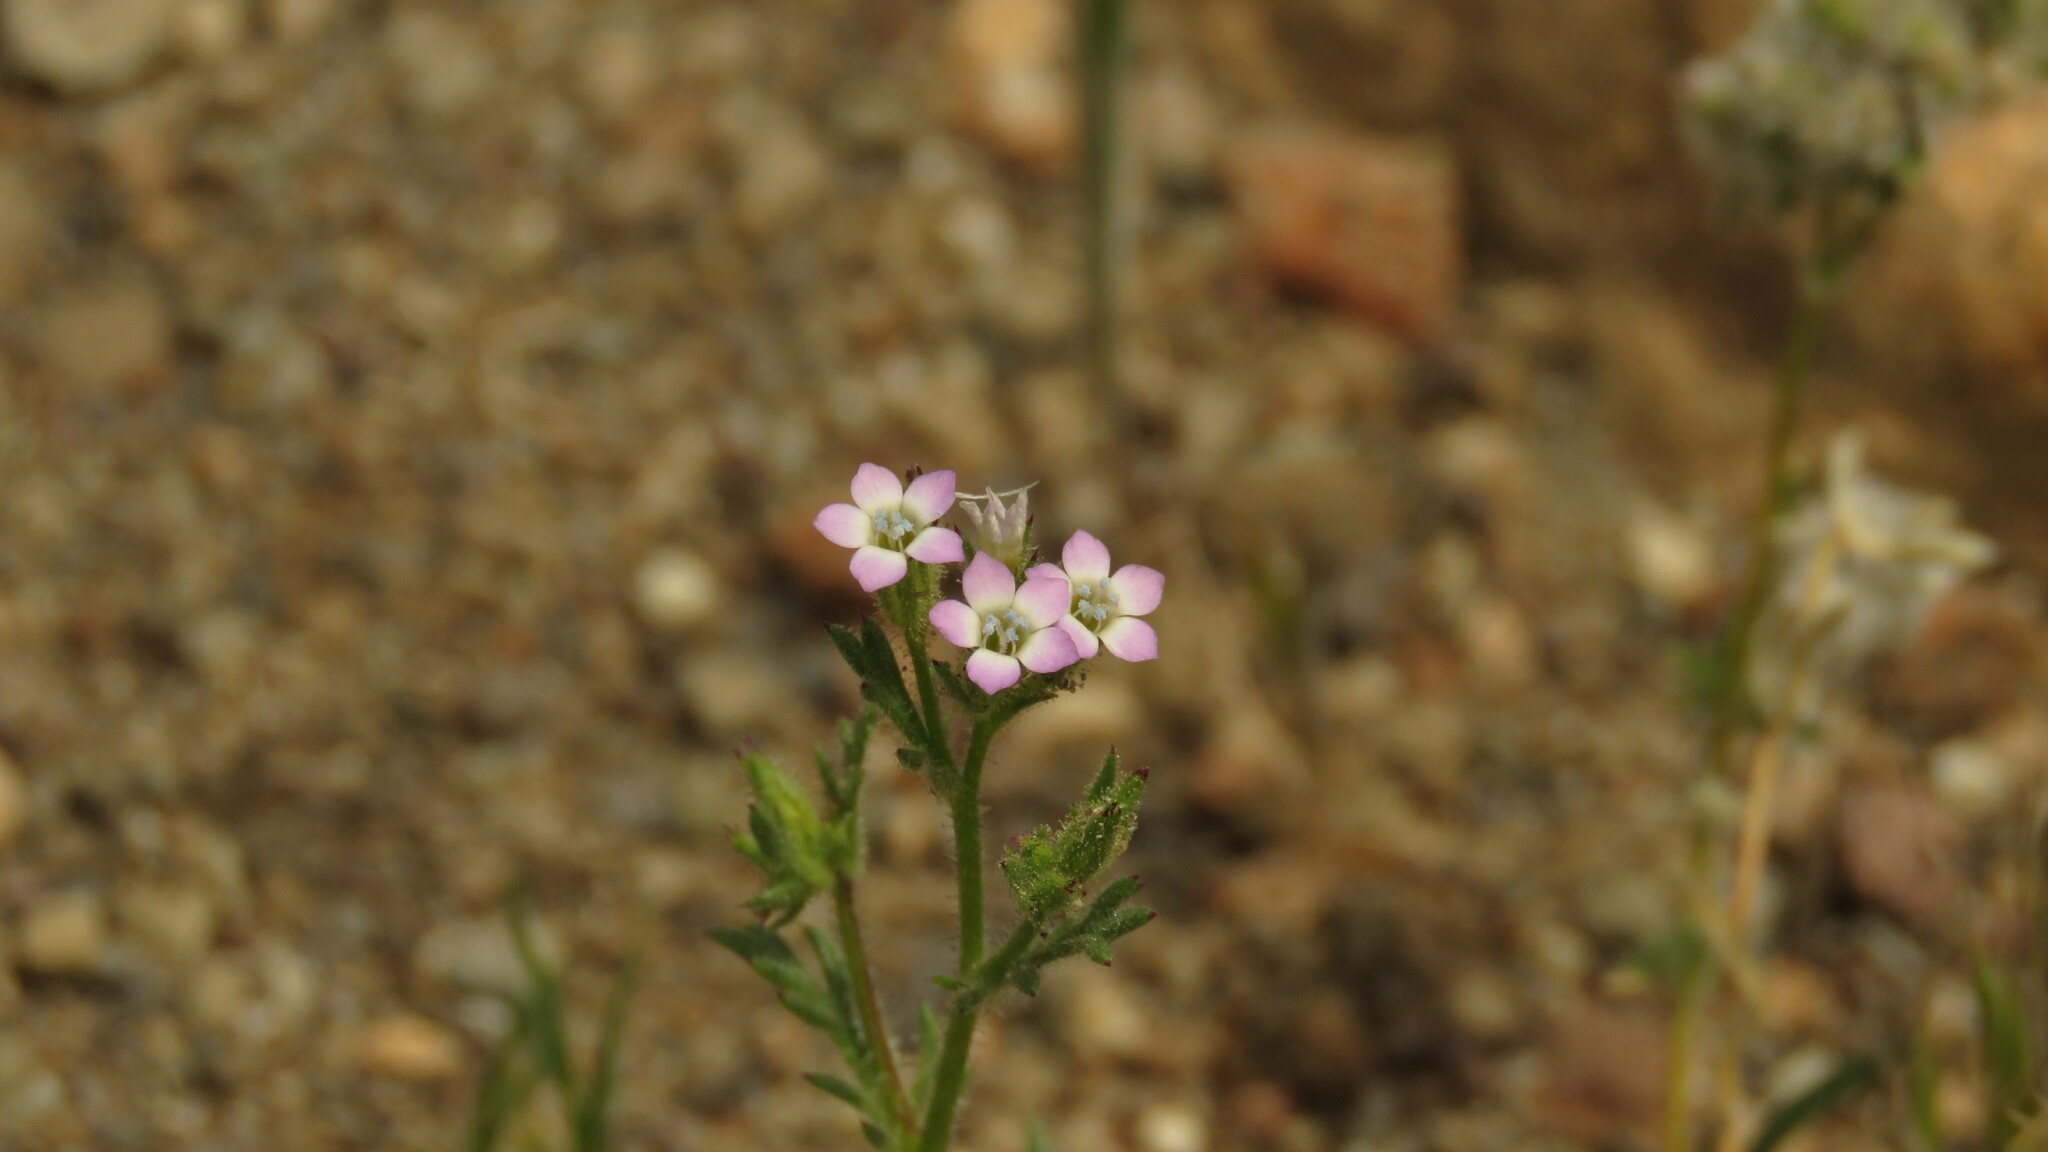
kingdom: Plantae
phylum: Tracheophyta
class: Magnoliopsida
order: Ericales
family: Polemoniaceae
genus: Gilia
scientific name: Gilia laciniata
